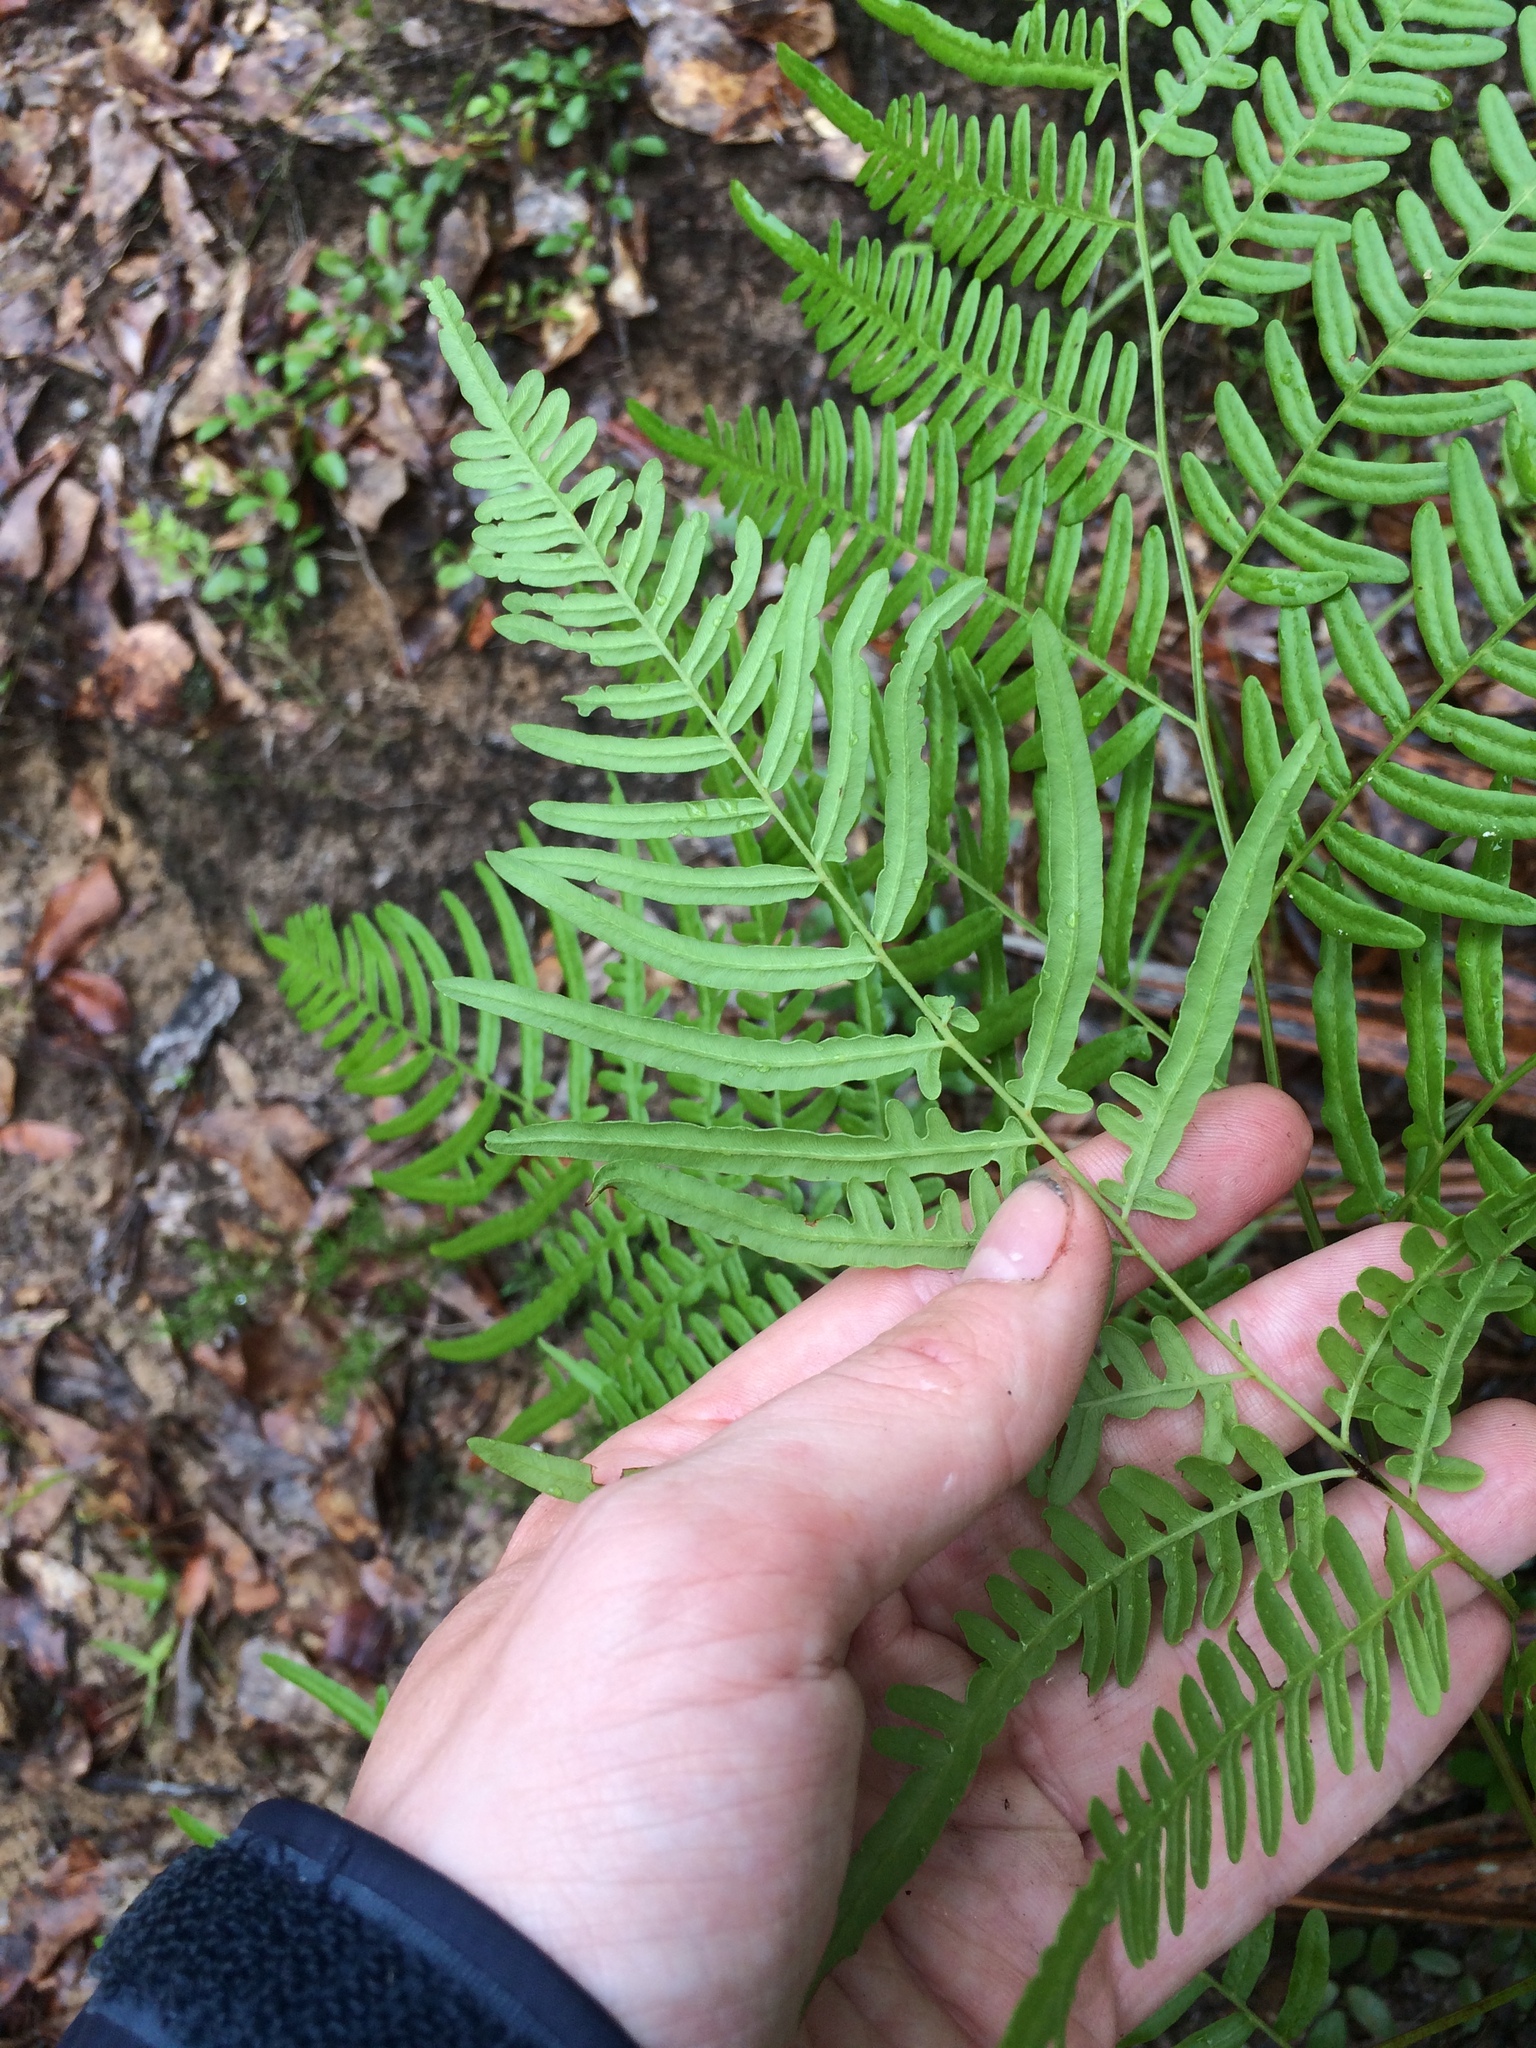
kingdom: Plantae
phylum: Tracheophyta
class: Polypodiopsida
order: Polypodiales
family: Dennstaedtiaceae
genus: Pteridium
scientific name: Pteridium
